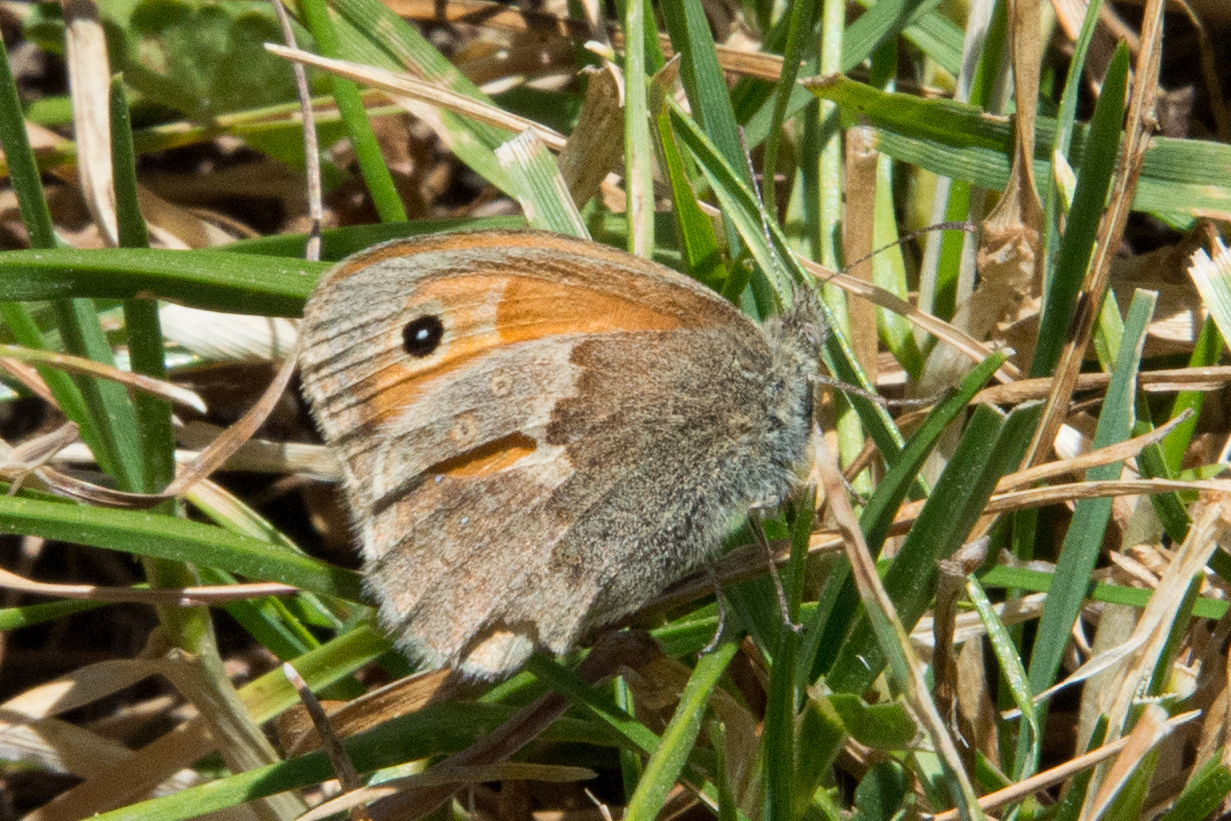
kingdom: Animalia
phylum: Arthropoda
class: Insecta
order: Lepidoptera
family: Nymphalidae
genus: Coenonympha
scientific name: Coenonympha pamphilus
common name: Small heath
